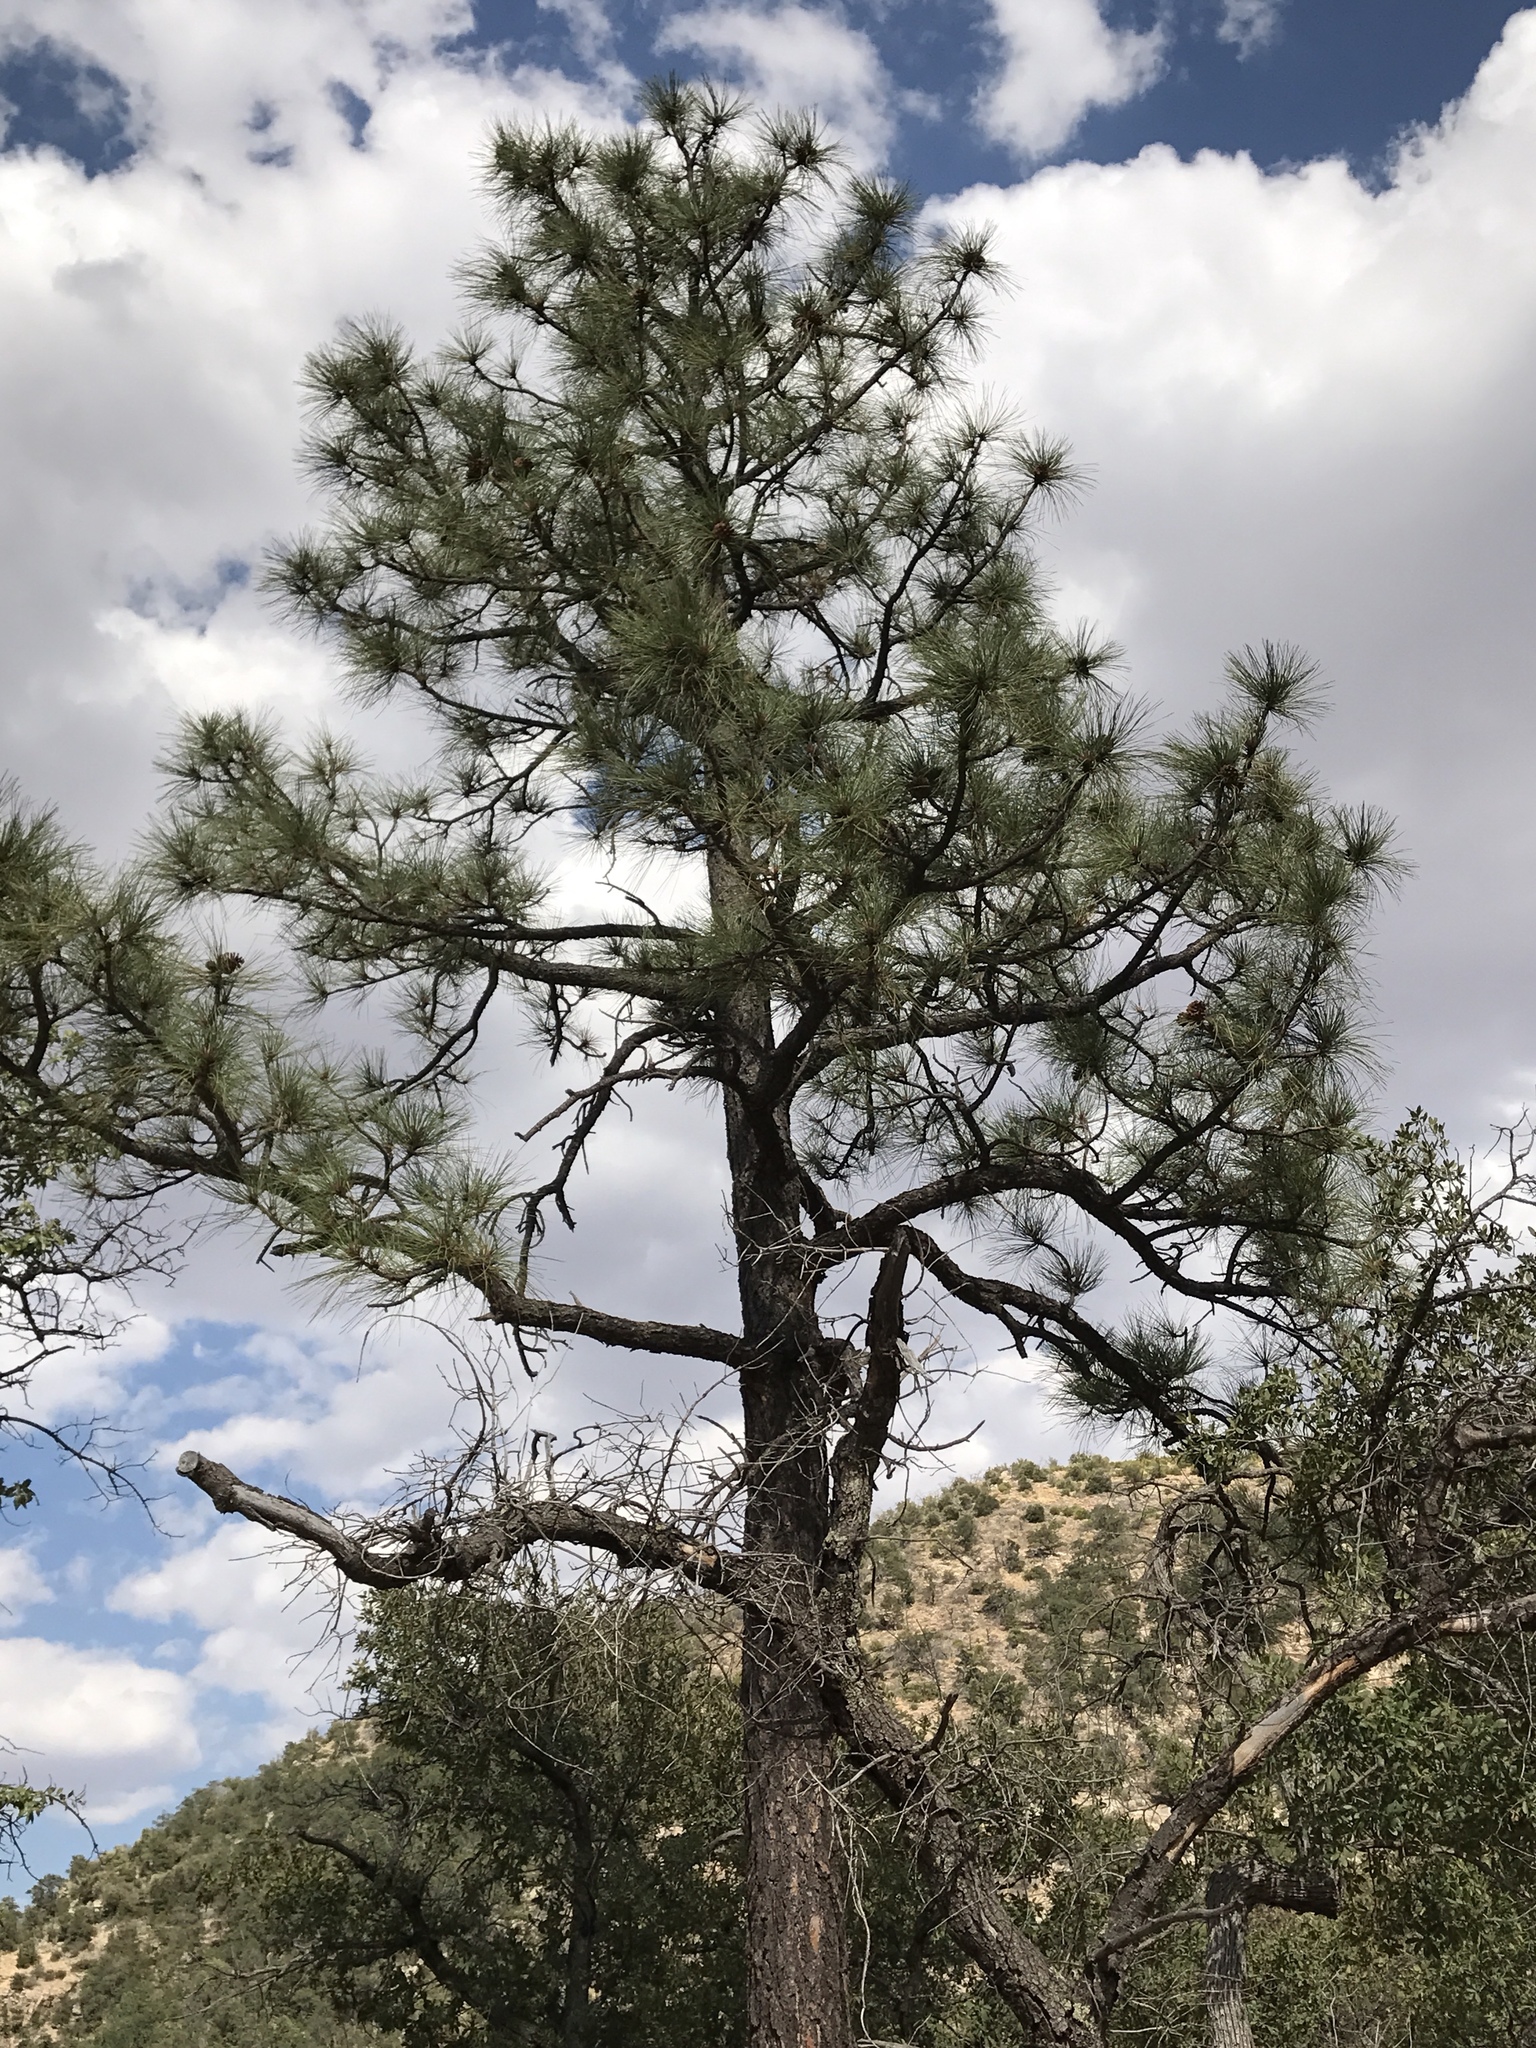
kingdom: Plantae
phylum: Tracheophyta
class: Pinopsida
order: Pinales
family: Pinaceae
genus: Pinus
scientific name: Pinus engelmannii
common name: Apache pine
